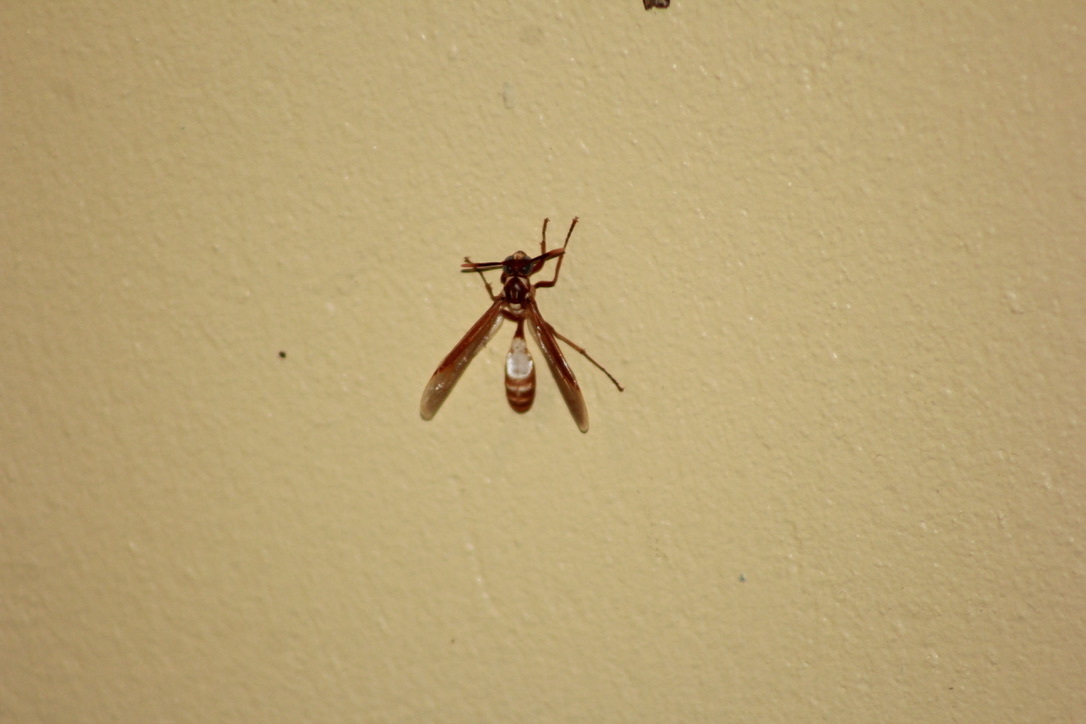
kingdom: Animalia
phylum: Arthropoda
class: Insecta
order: Hymenoptera
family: Vespidae
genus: Apoica
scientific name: Apoica pallens
